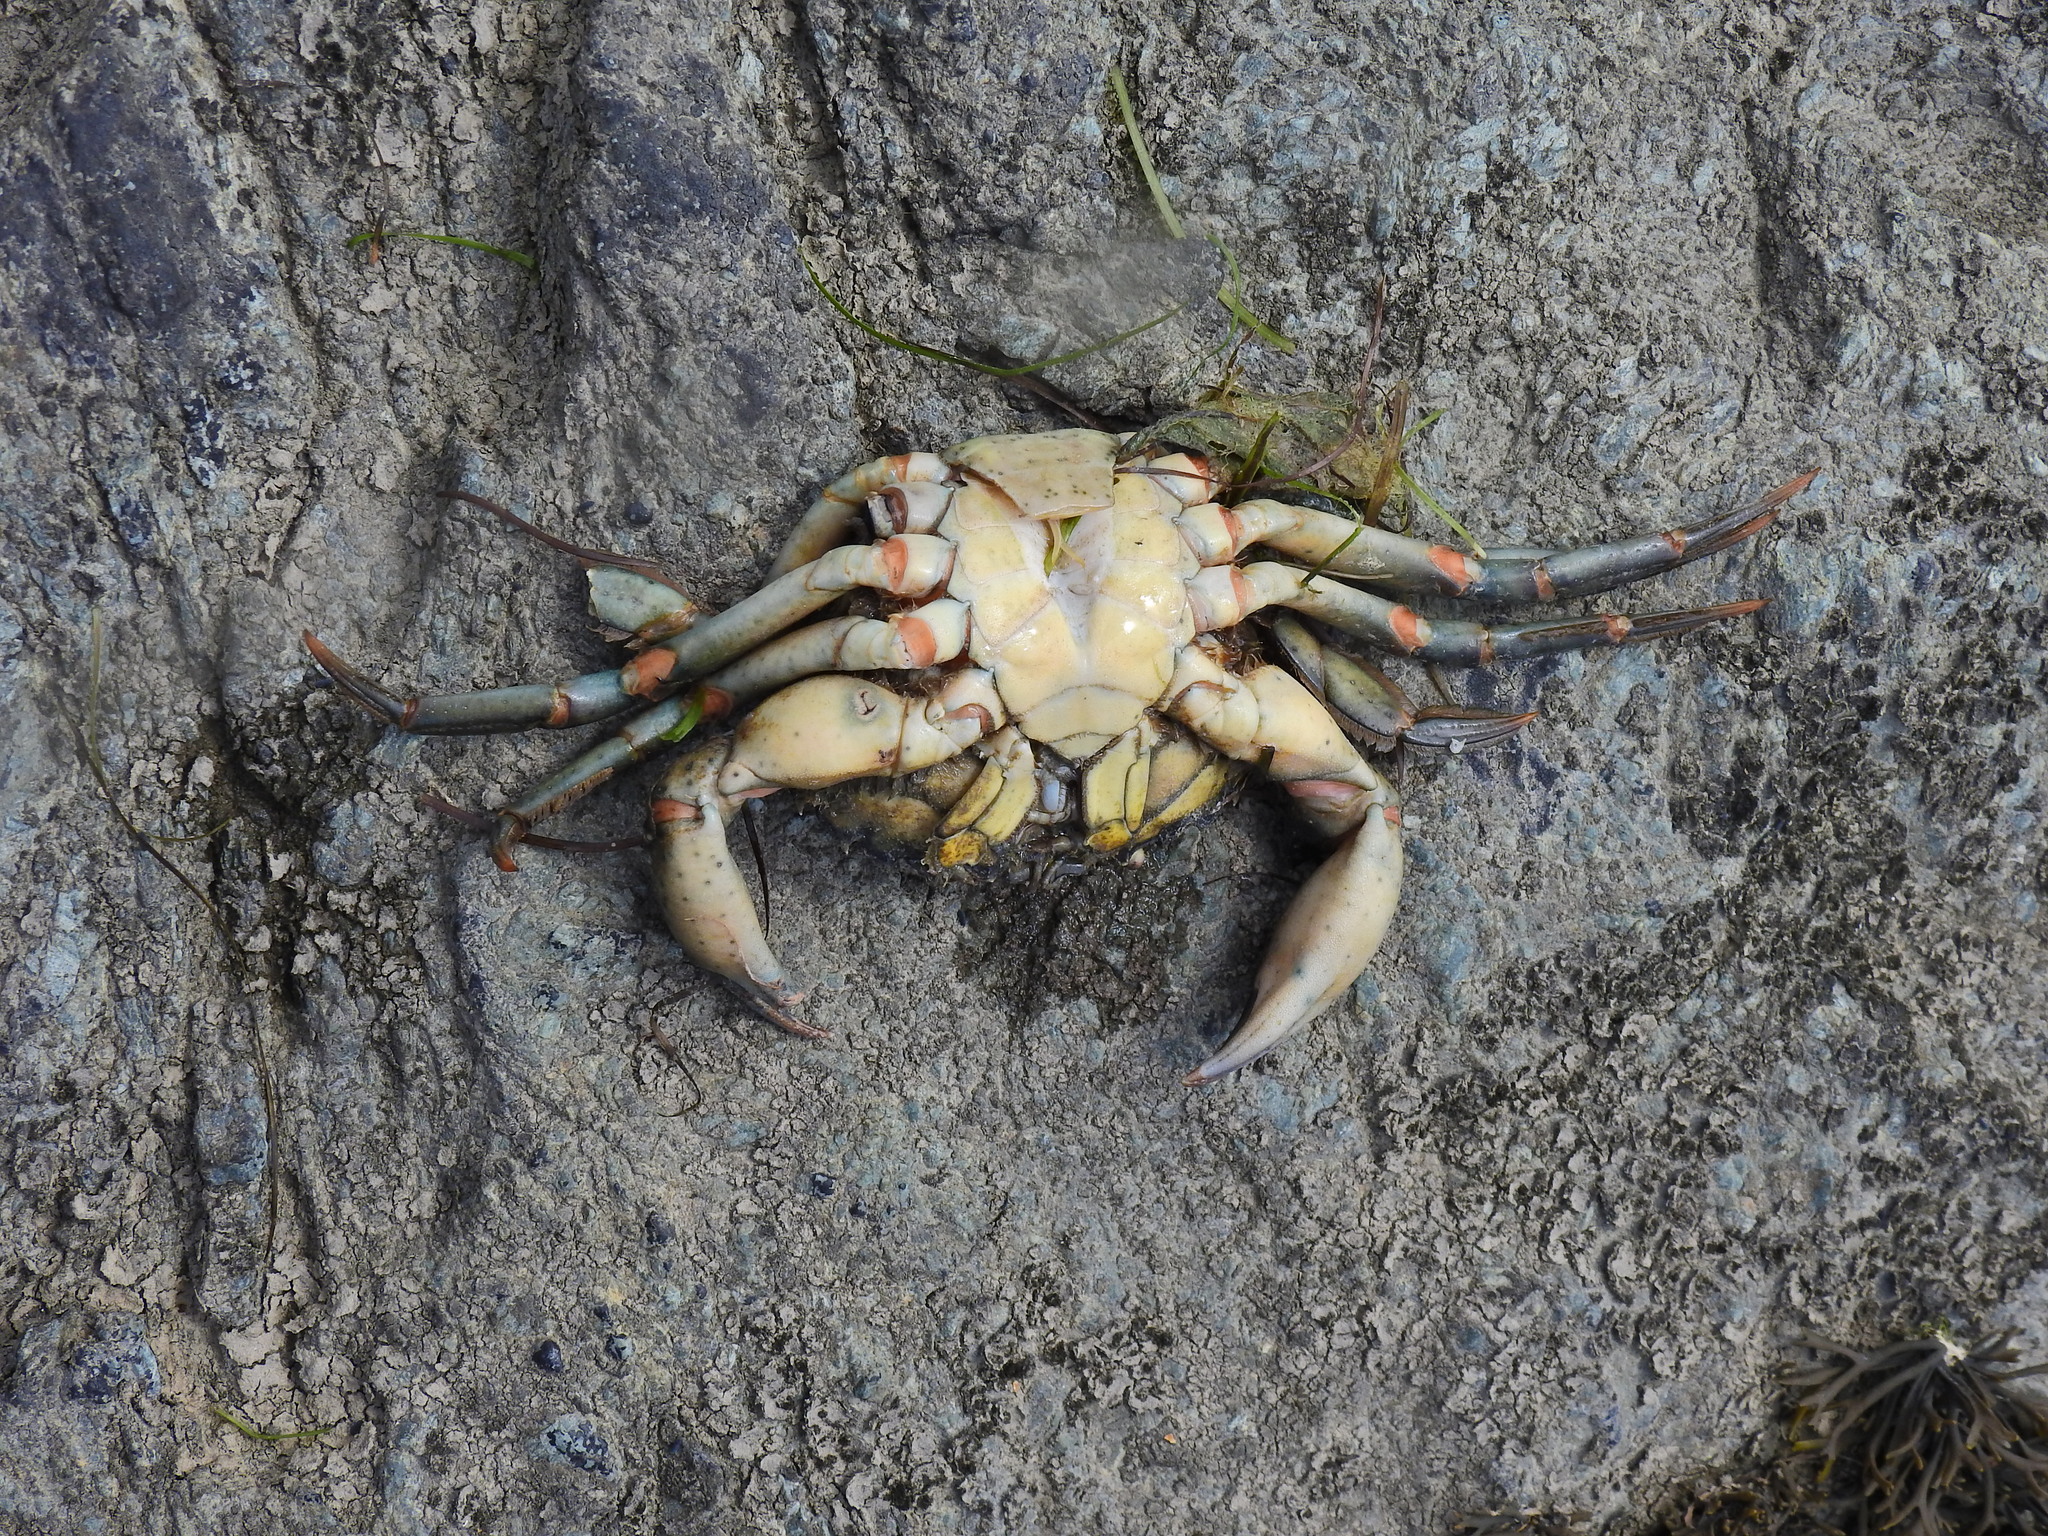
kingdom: Animalia
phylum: Arthropoda
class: Malacostraca
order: Decapoda
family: Carcinidae
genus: Carcinus
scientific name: Carcinus maenas
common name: European green crab
